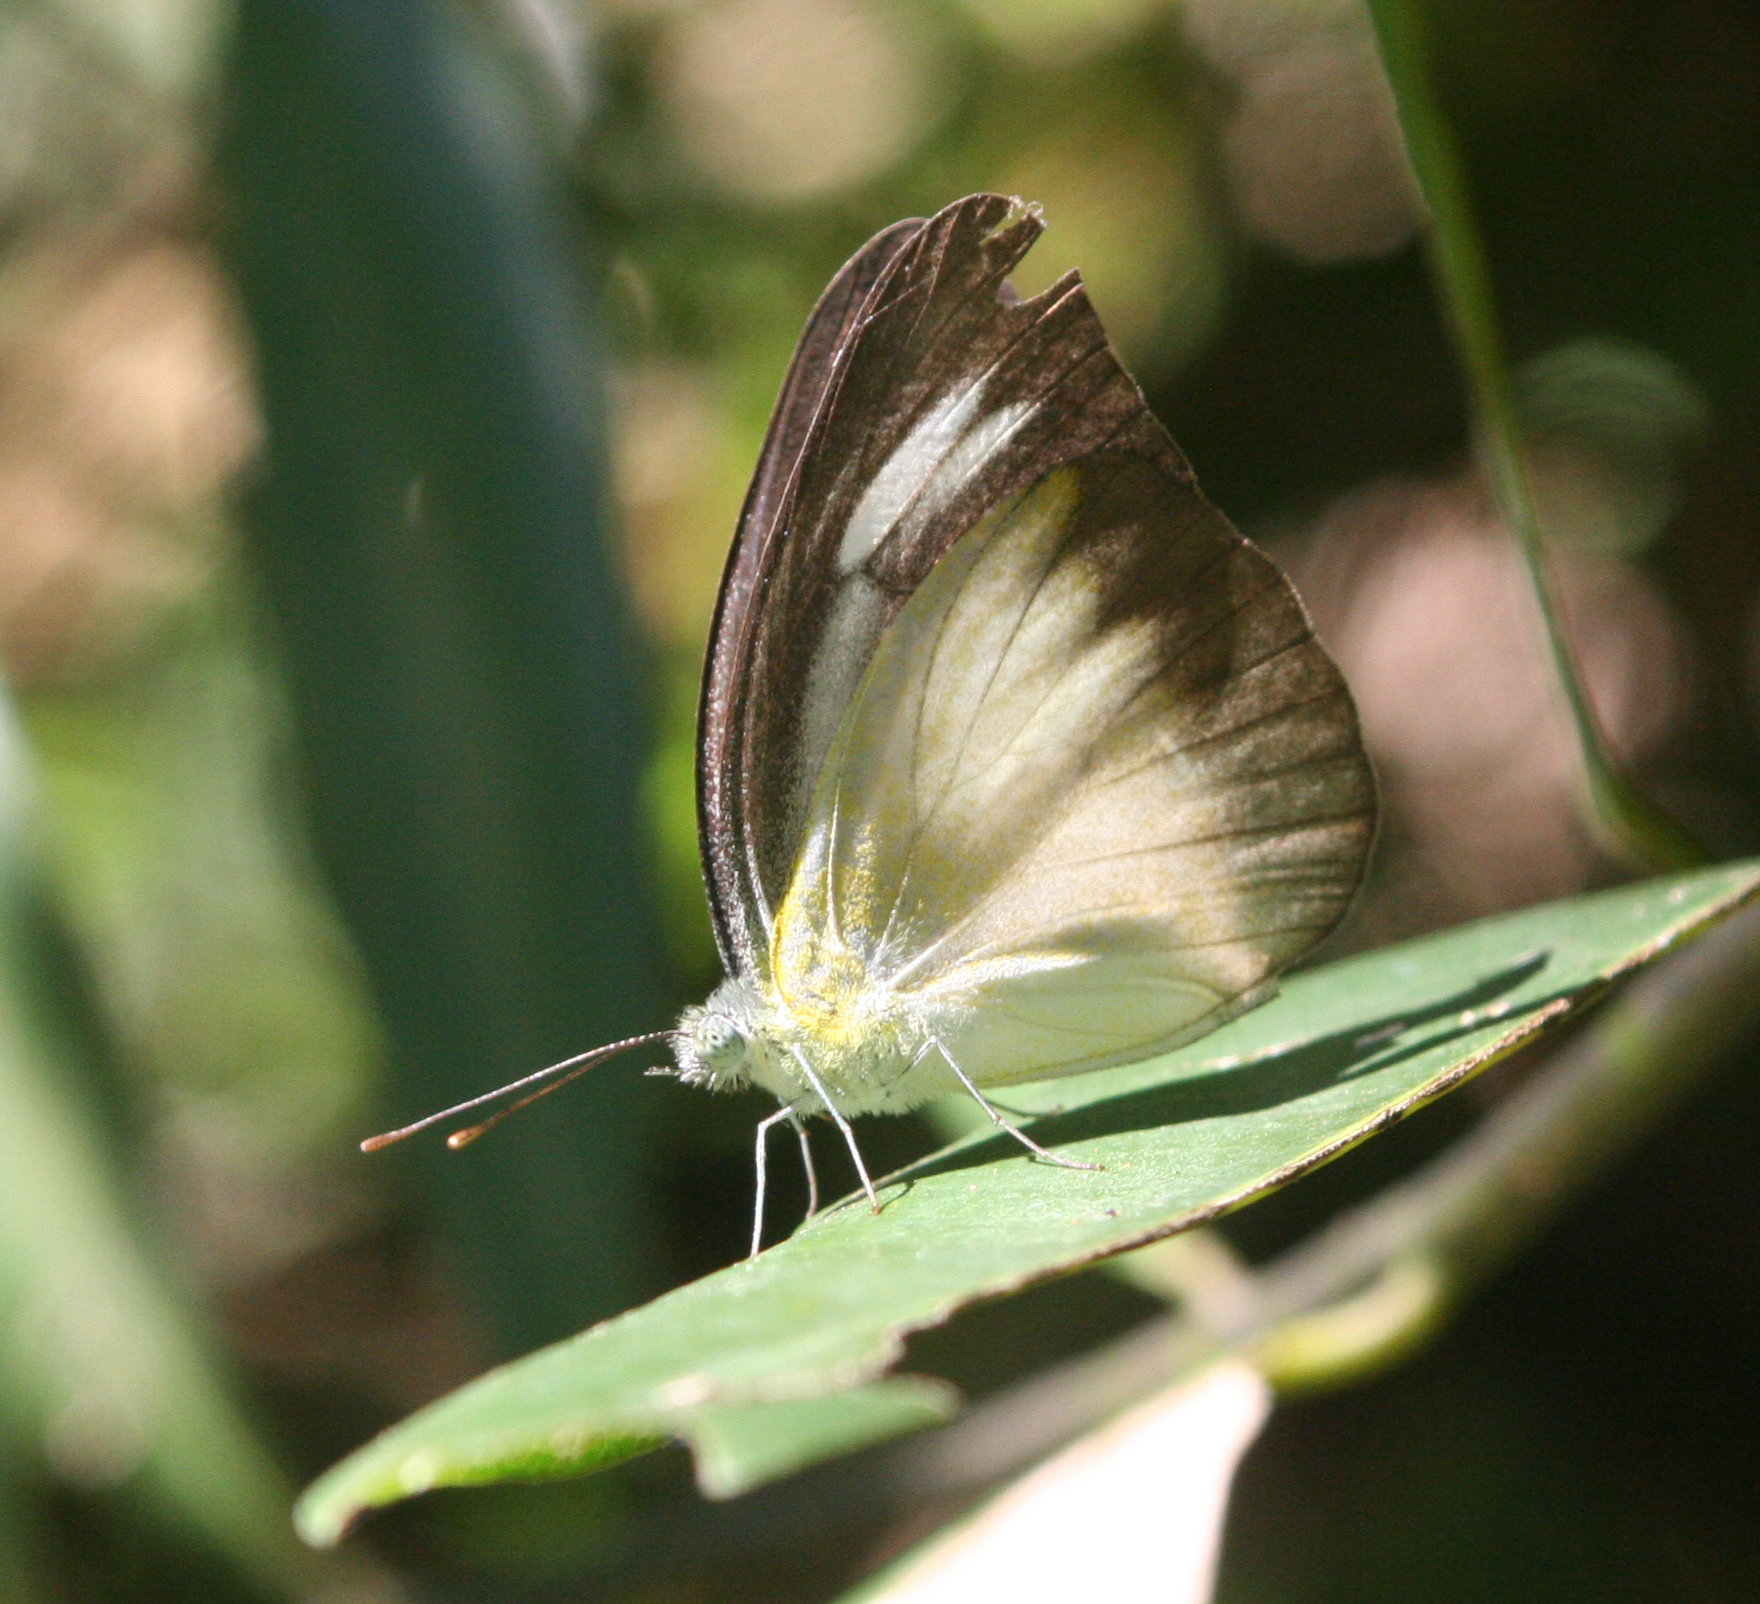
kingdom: Animalia
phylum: Arthropoda
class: Insecta
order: Lepidoptera
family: Pieridae
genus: Appias
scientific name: Appias lyncida
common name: Chocolate albatross
